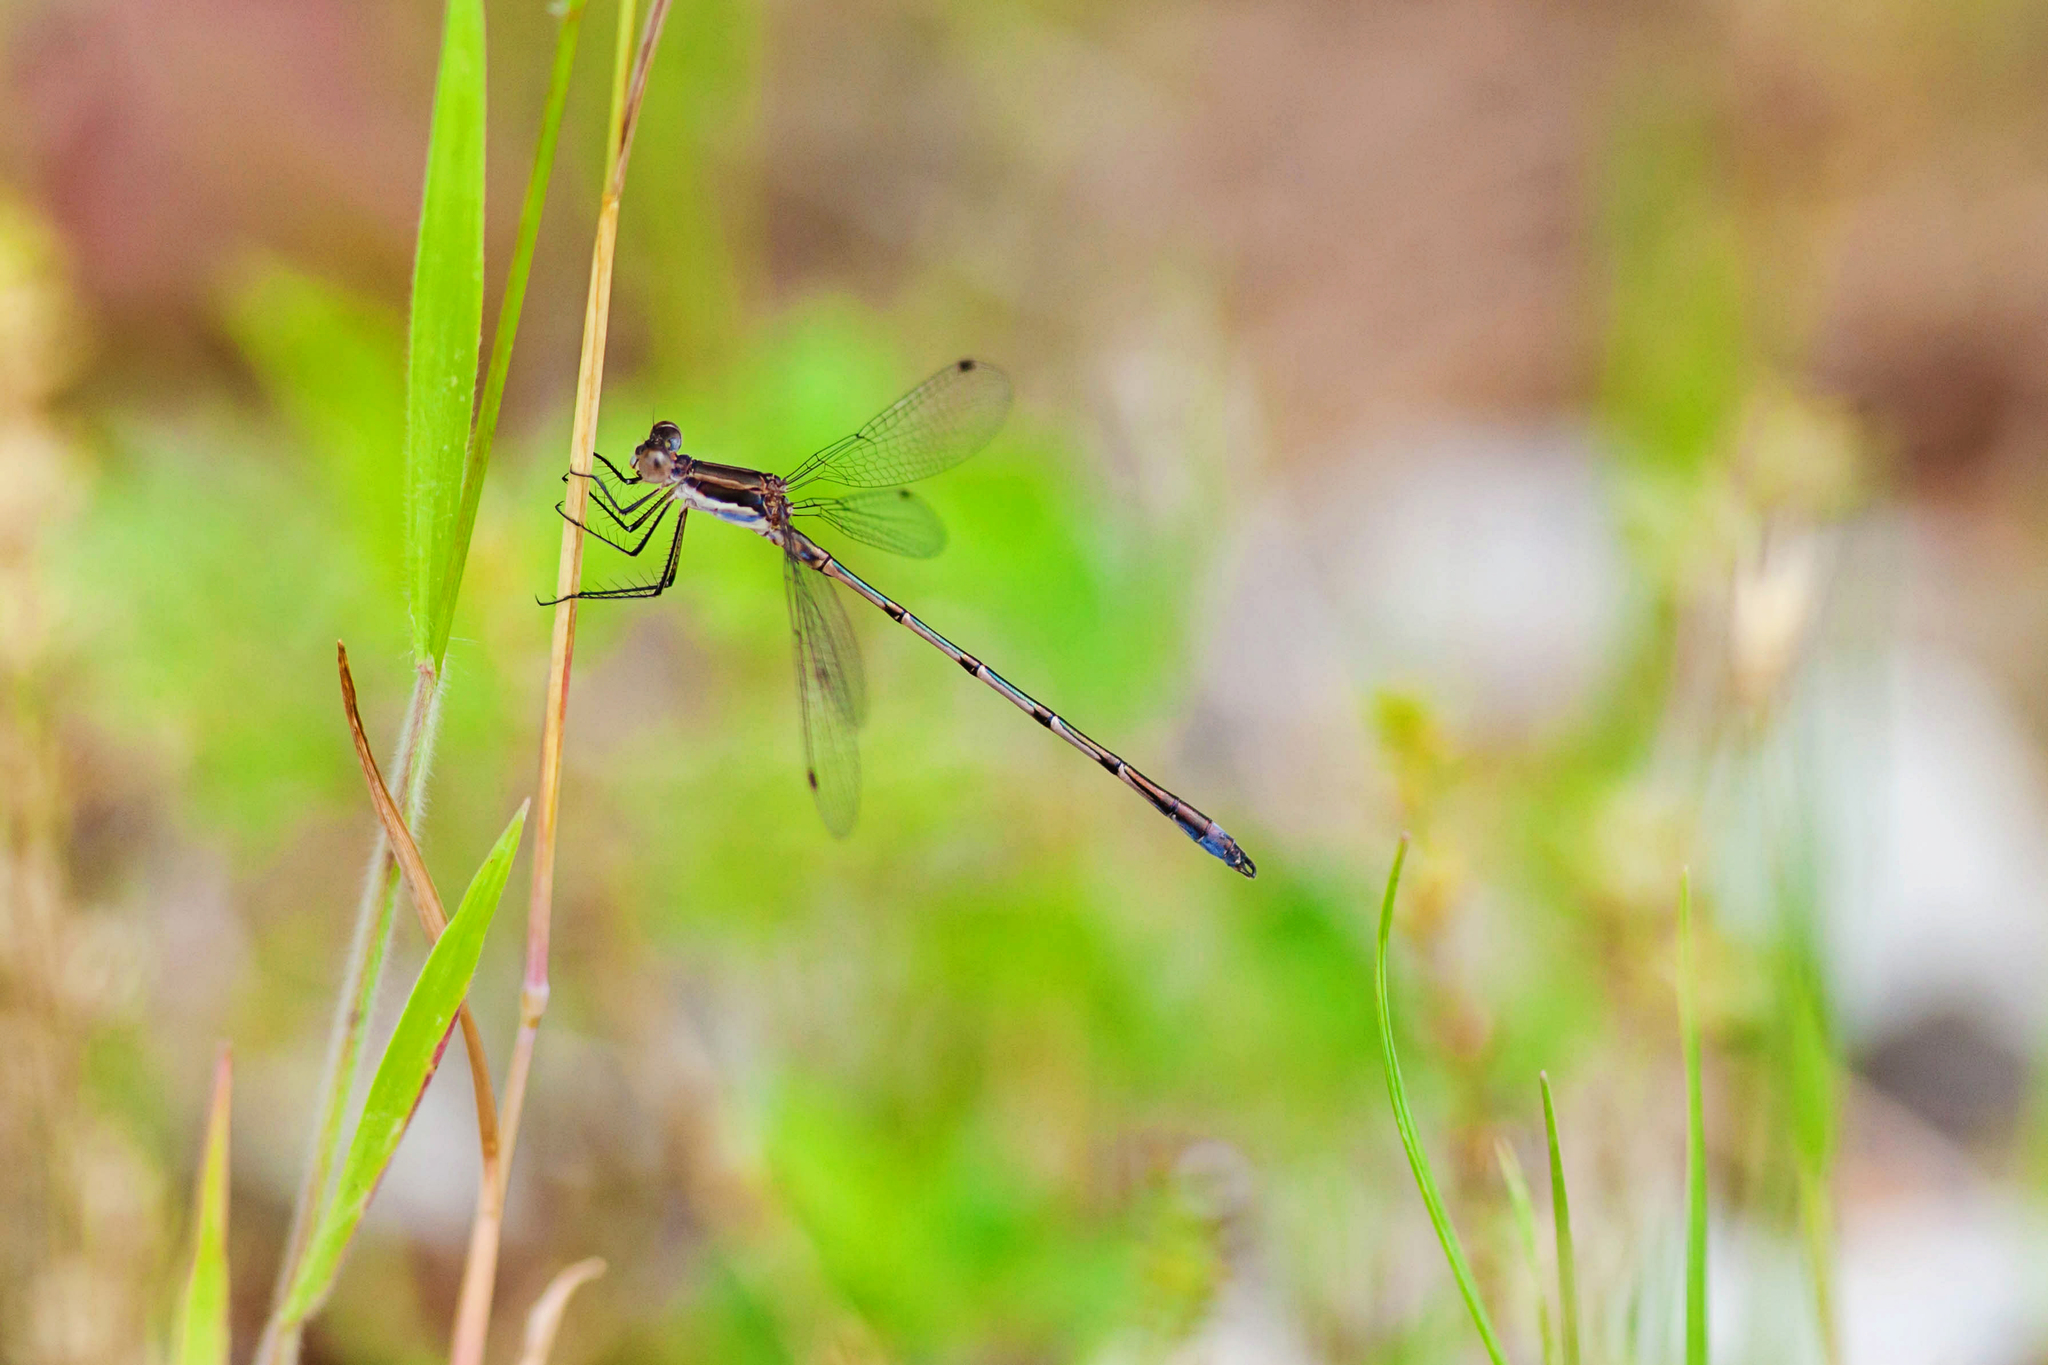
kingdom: Animalia
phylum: Arthropoda
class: Insecta
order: Odonata
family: Lestidae
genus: Lestes
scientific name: Lestes australis
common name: Southern spreadwing
